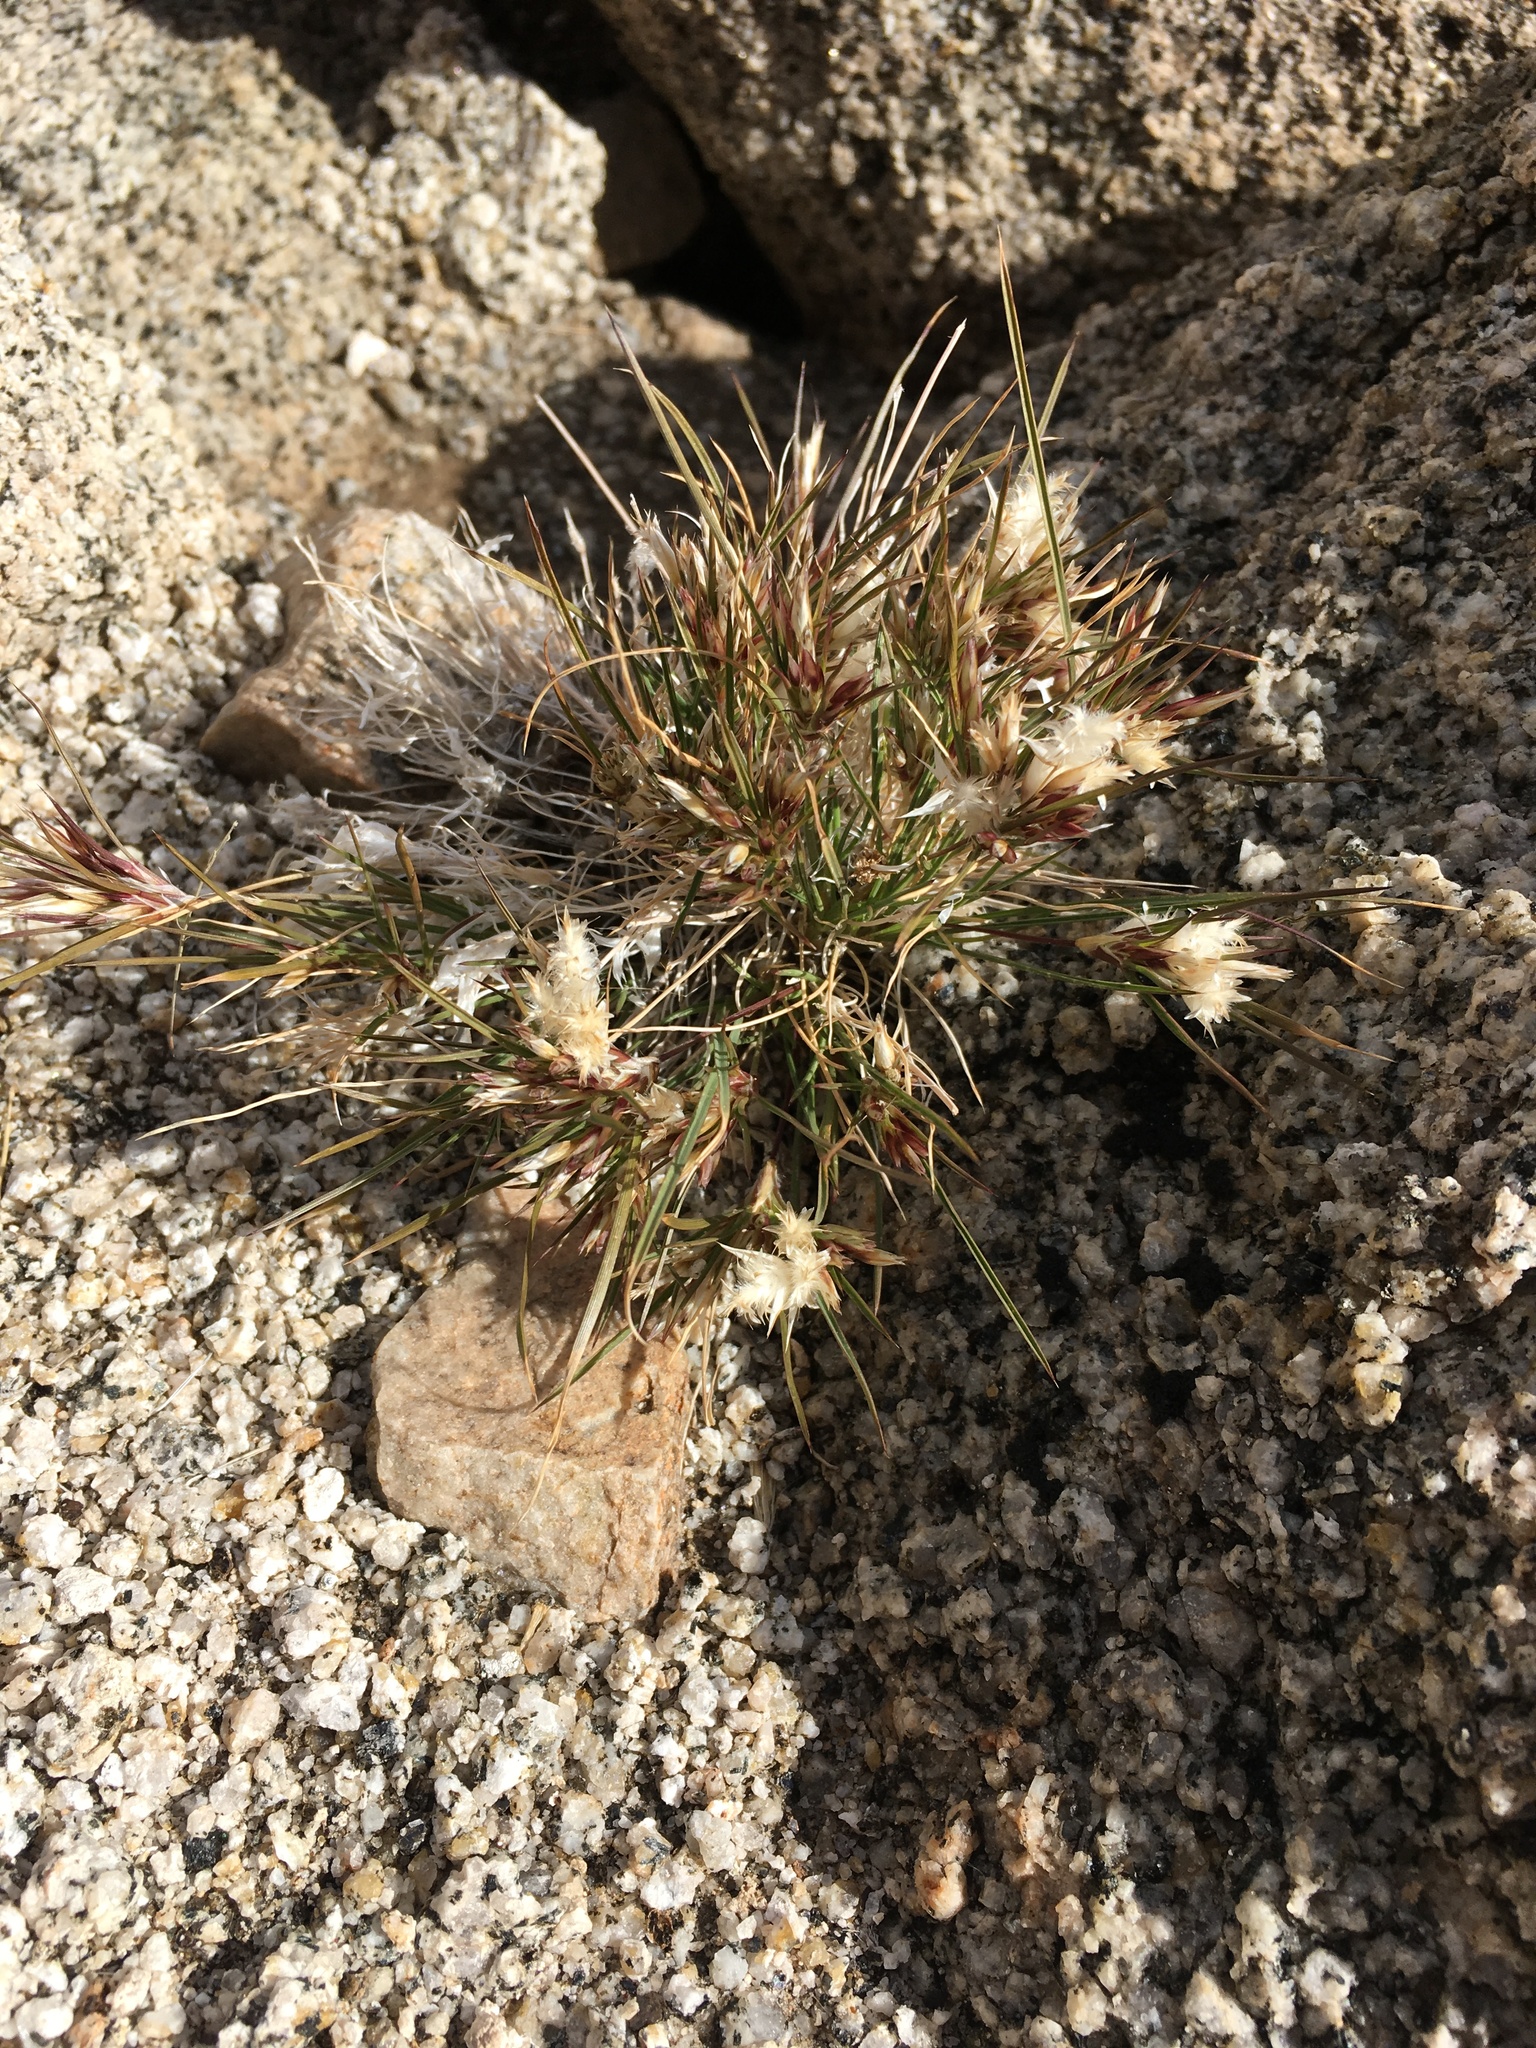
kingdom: Plantae
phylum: Tracheophyta
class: Liliopsida
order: Poales
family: Poaceae
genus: Dasyochloa
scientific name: Dasyochloa pulchella
